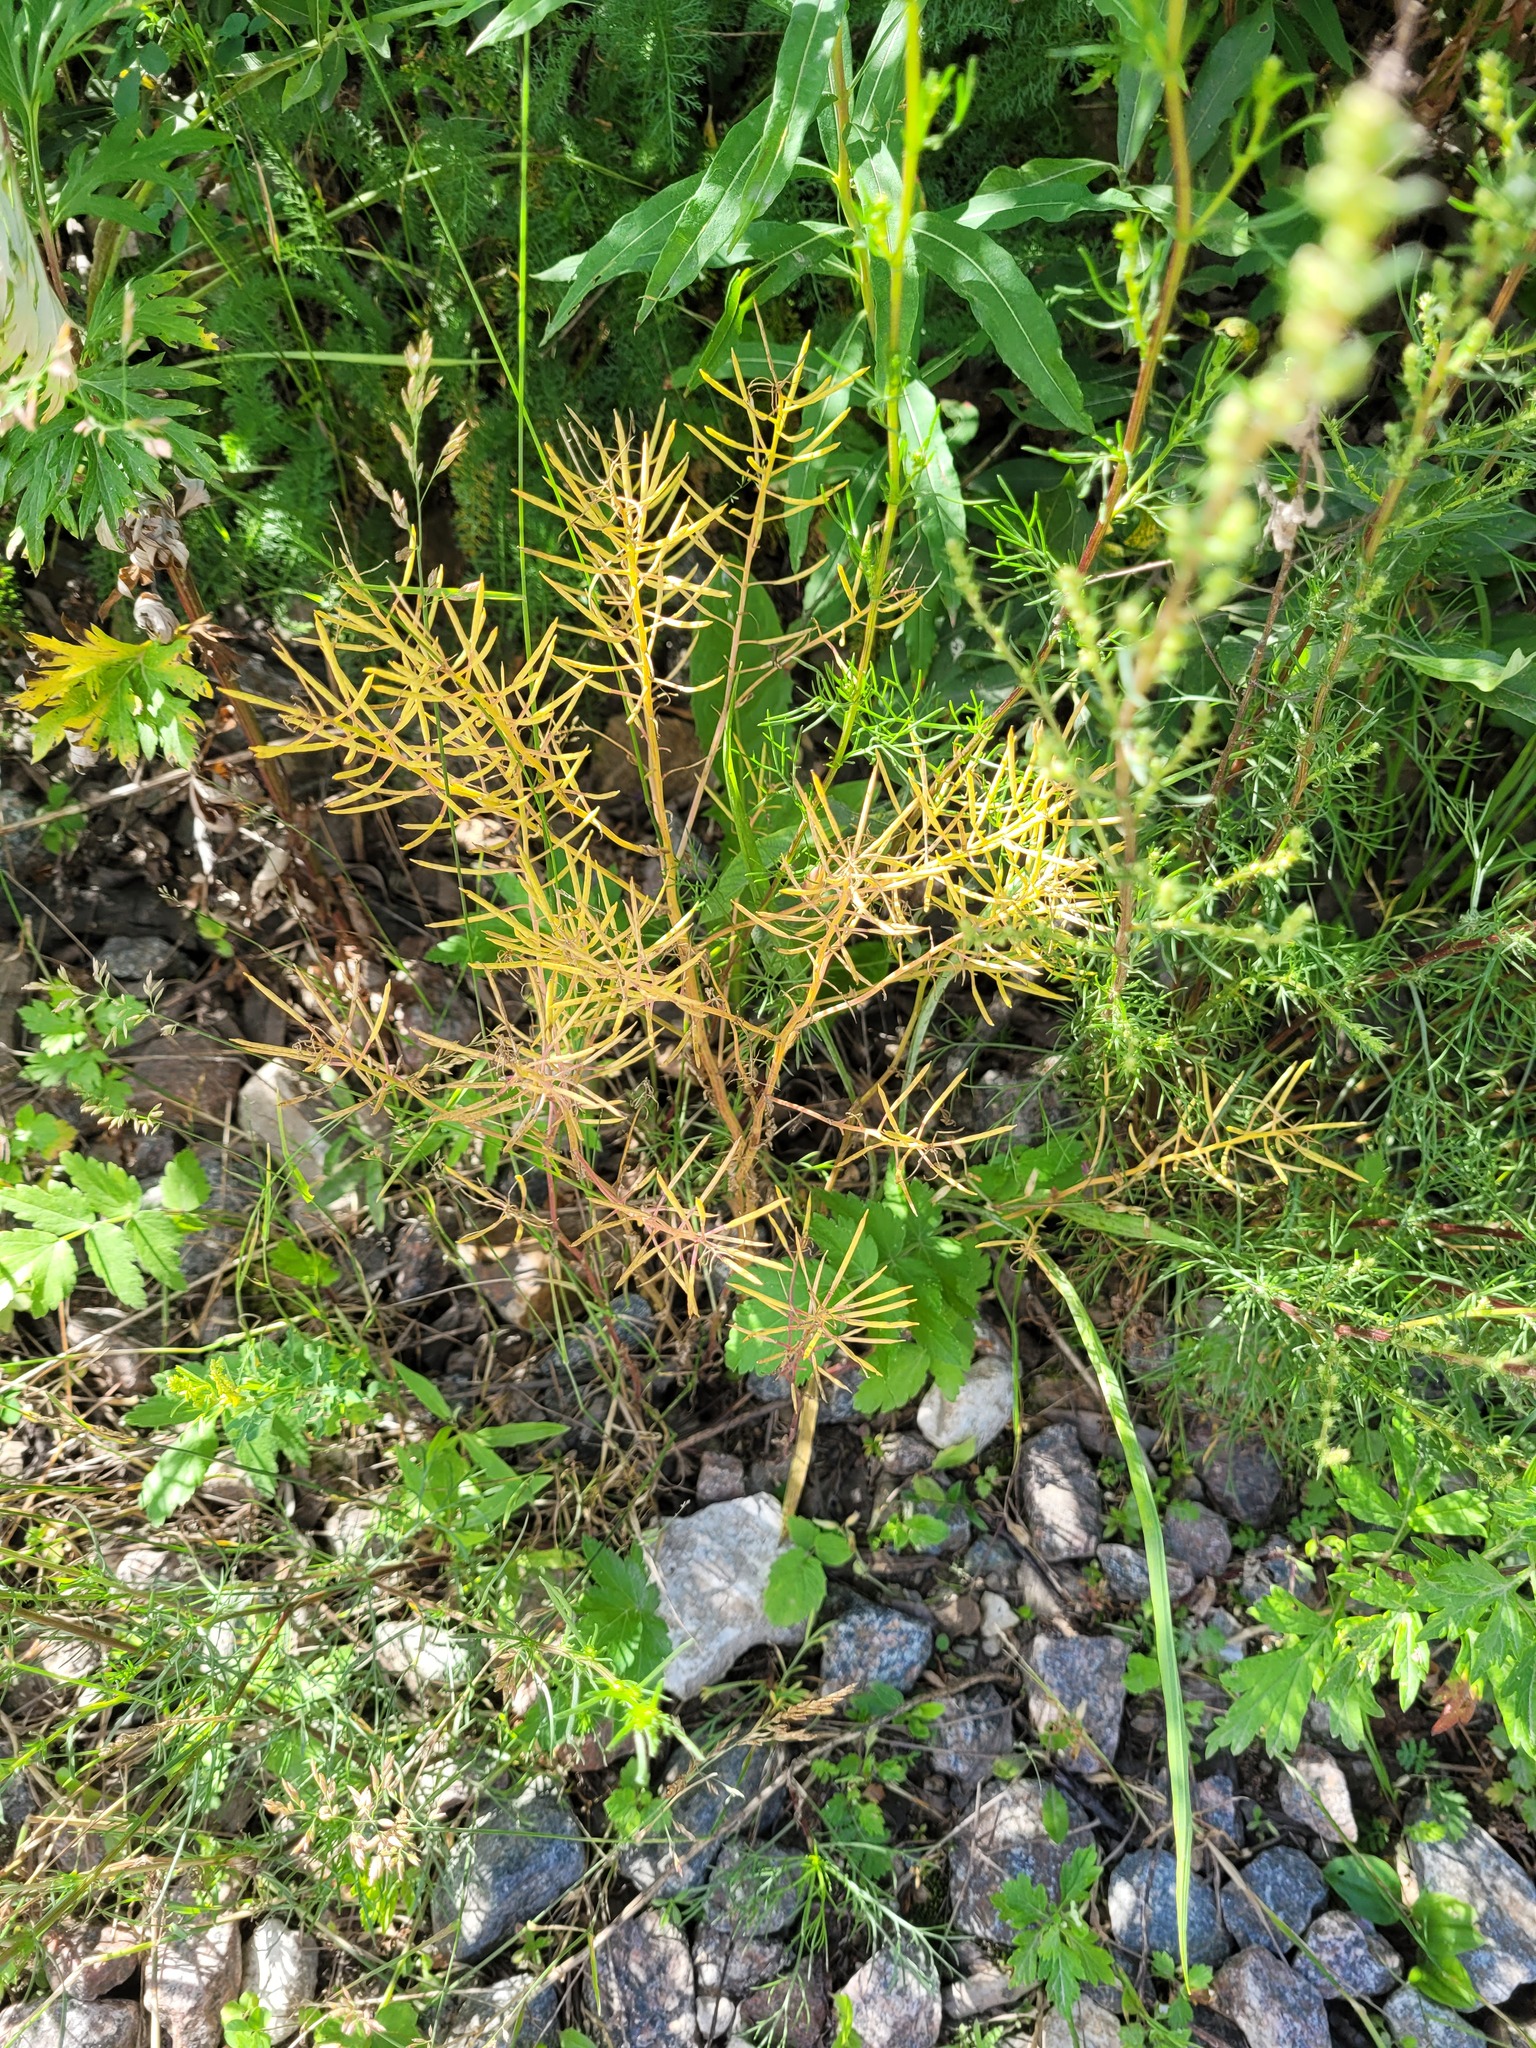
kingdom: Plantae
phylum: Tracheophyta
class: Magnoliopsida
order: Brassicales
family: Brassicaceae
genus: Barbarea
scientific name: Barbarea vulgaris
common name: Cressy-greens
